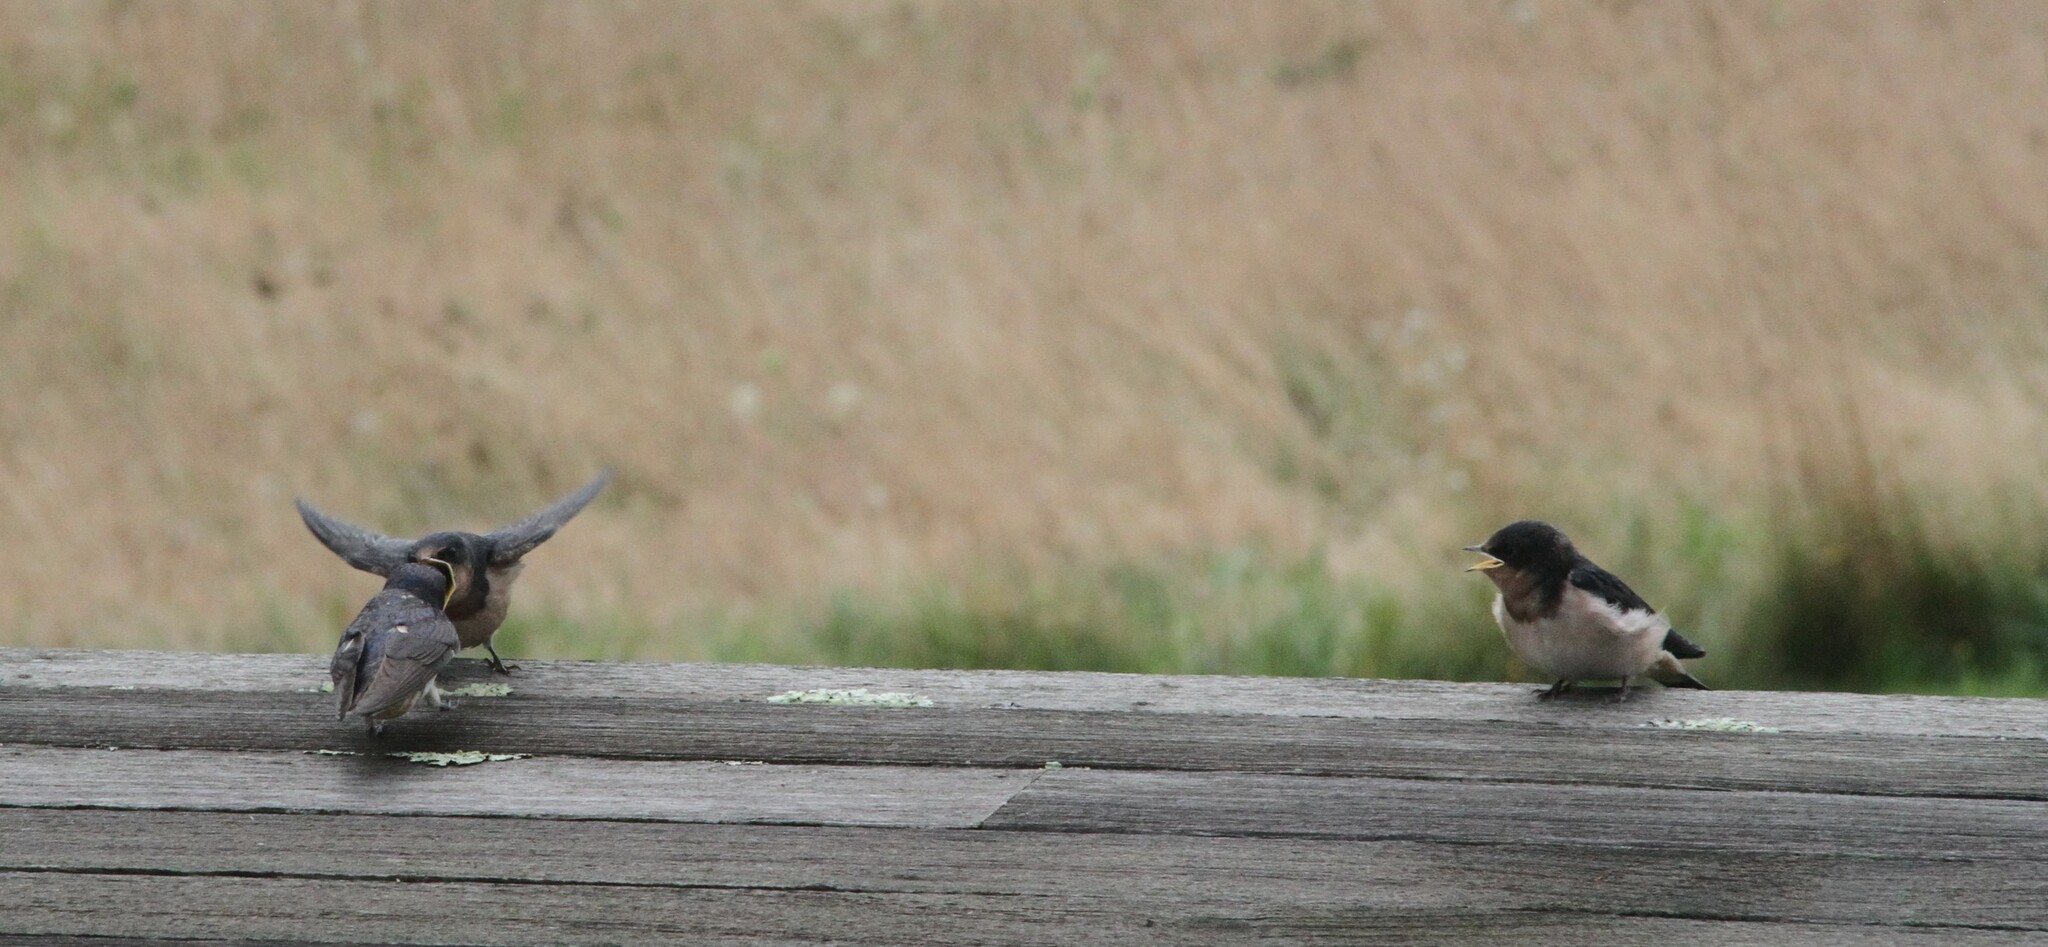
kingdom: Animalia
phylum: Chordata
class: Aves
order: Passeriformes
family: Hirundinidae
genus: Hirundo
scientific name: Hirundo rustica
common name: Barn swallow
